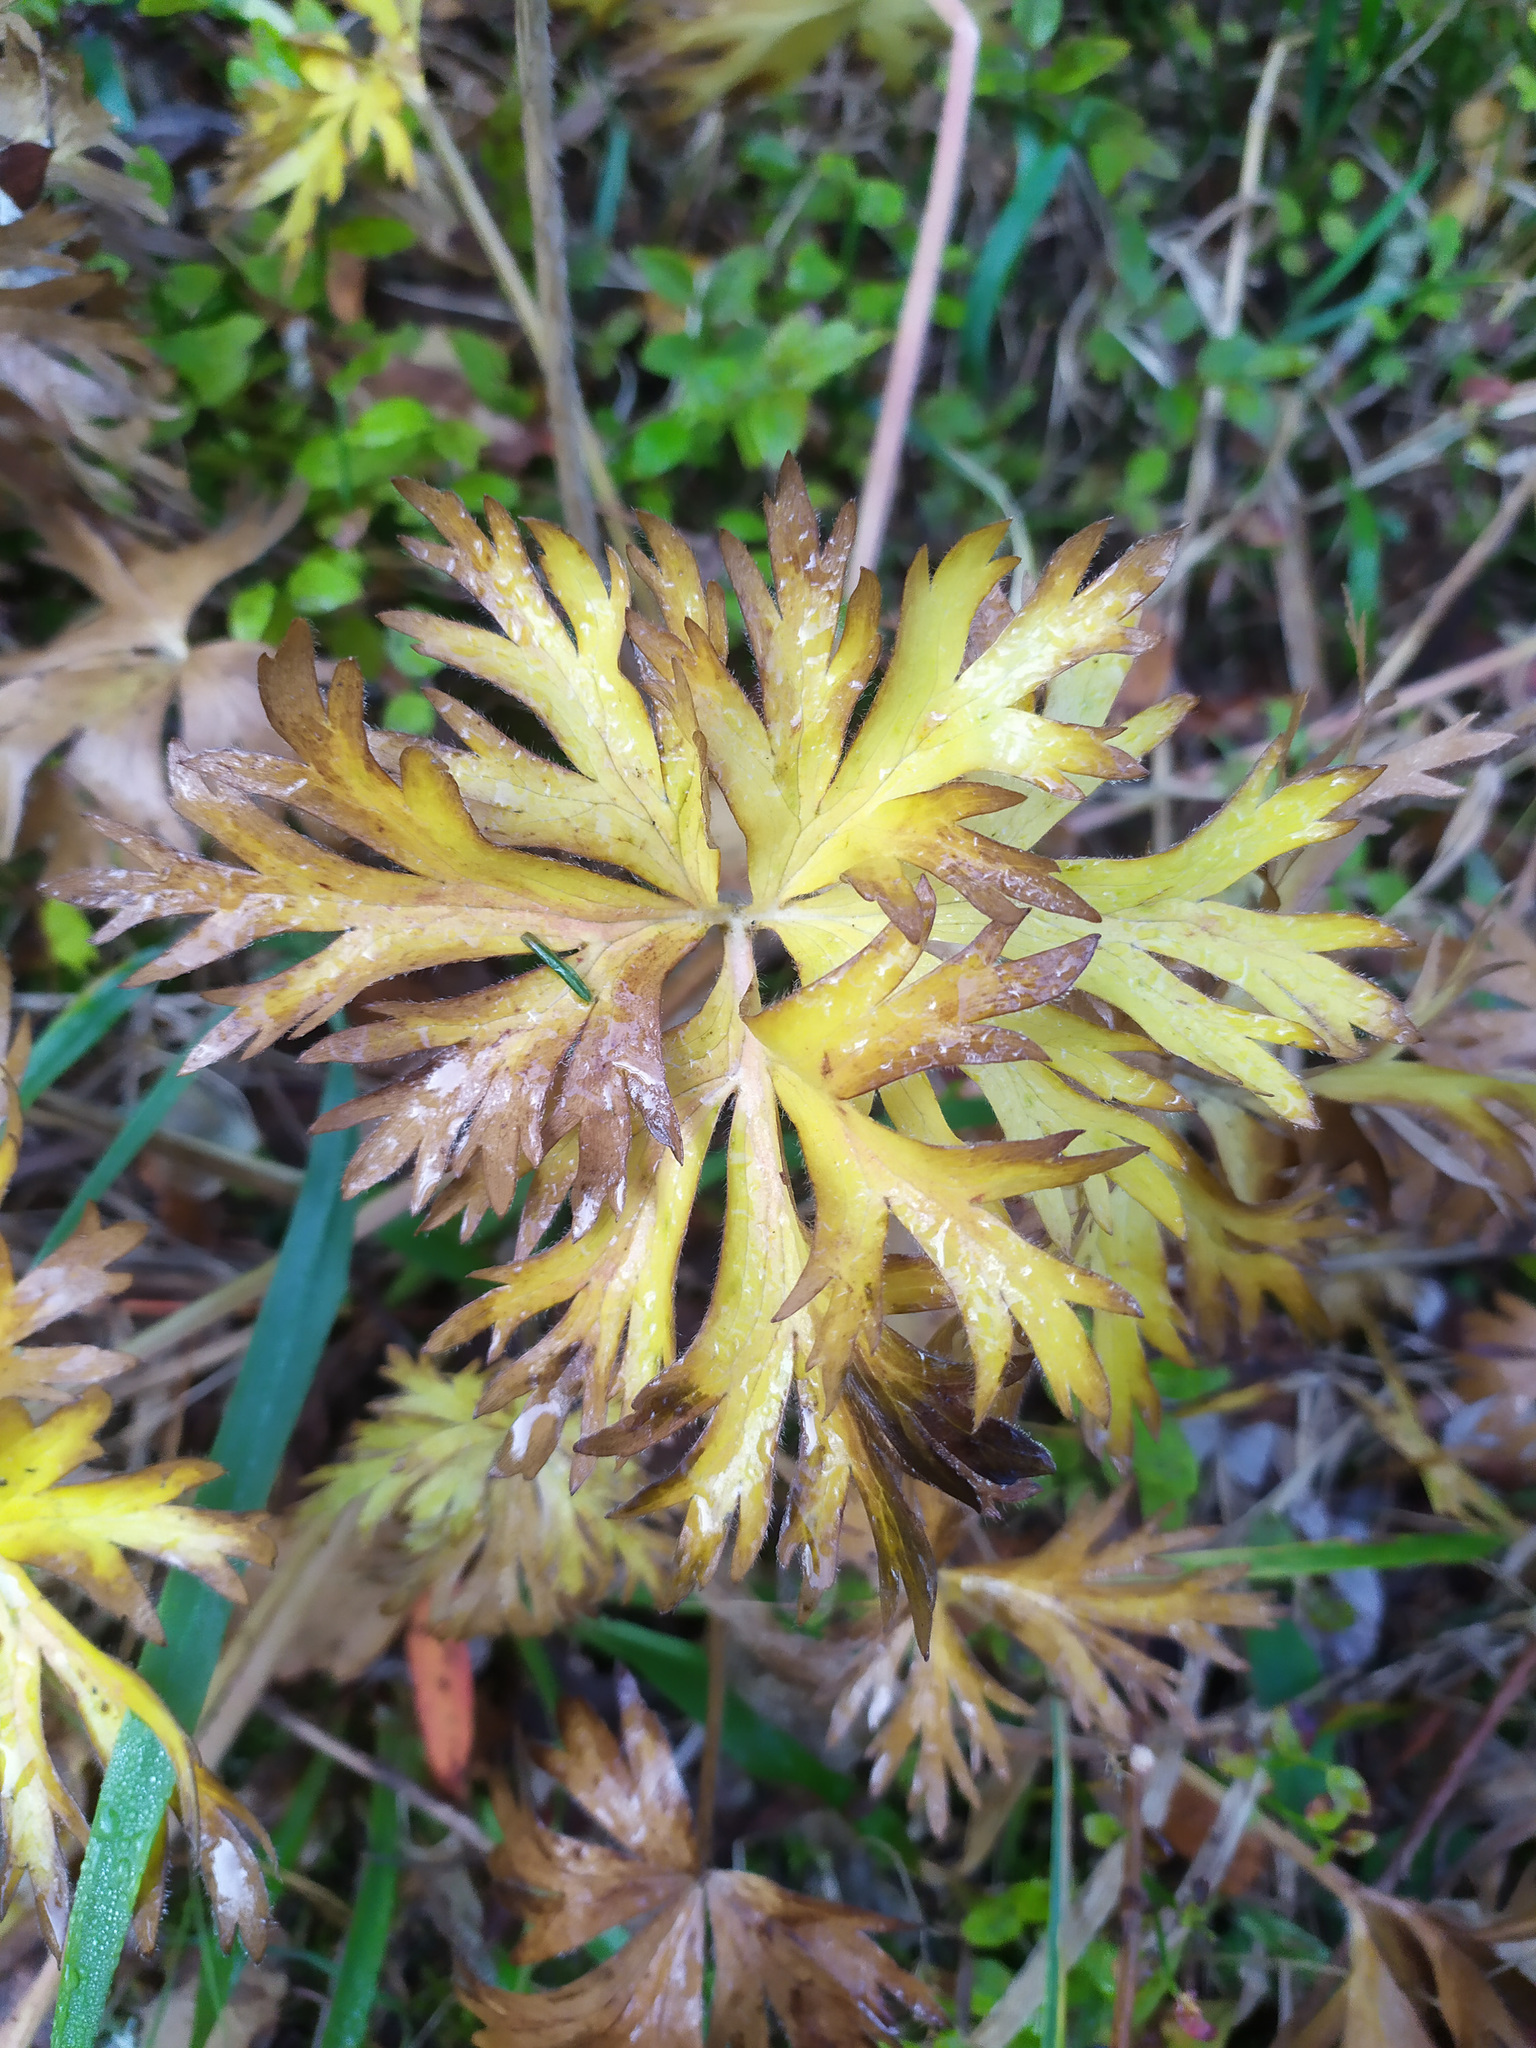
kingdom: Plantae
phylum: Tracheophyta
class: Magnoliopsida
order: Ranunculales
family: Ranunculaceae
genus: Anemonastrum
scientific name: Anemonastrum biarmiense
